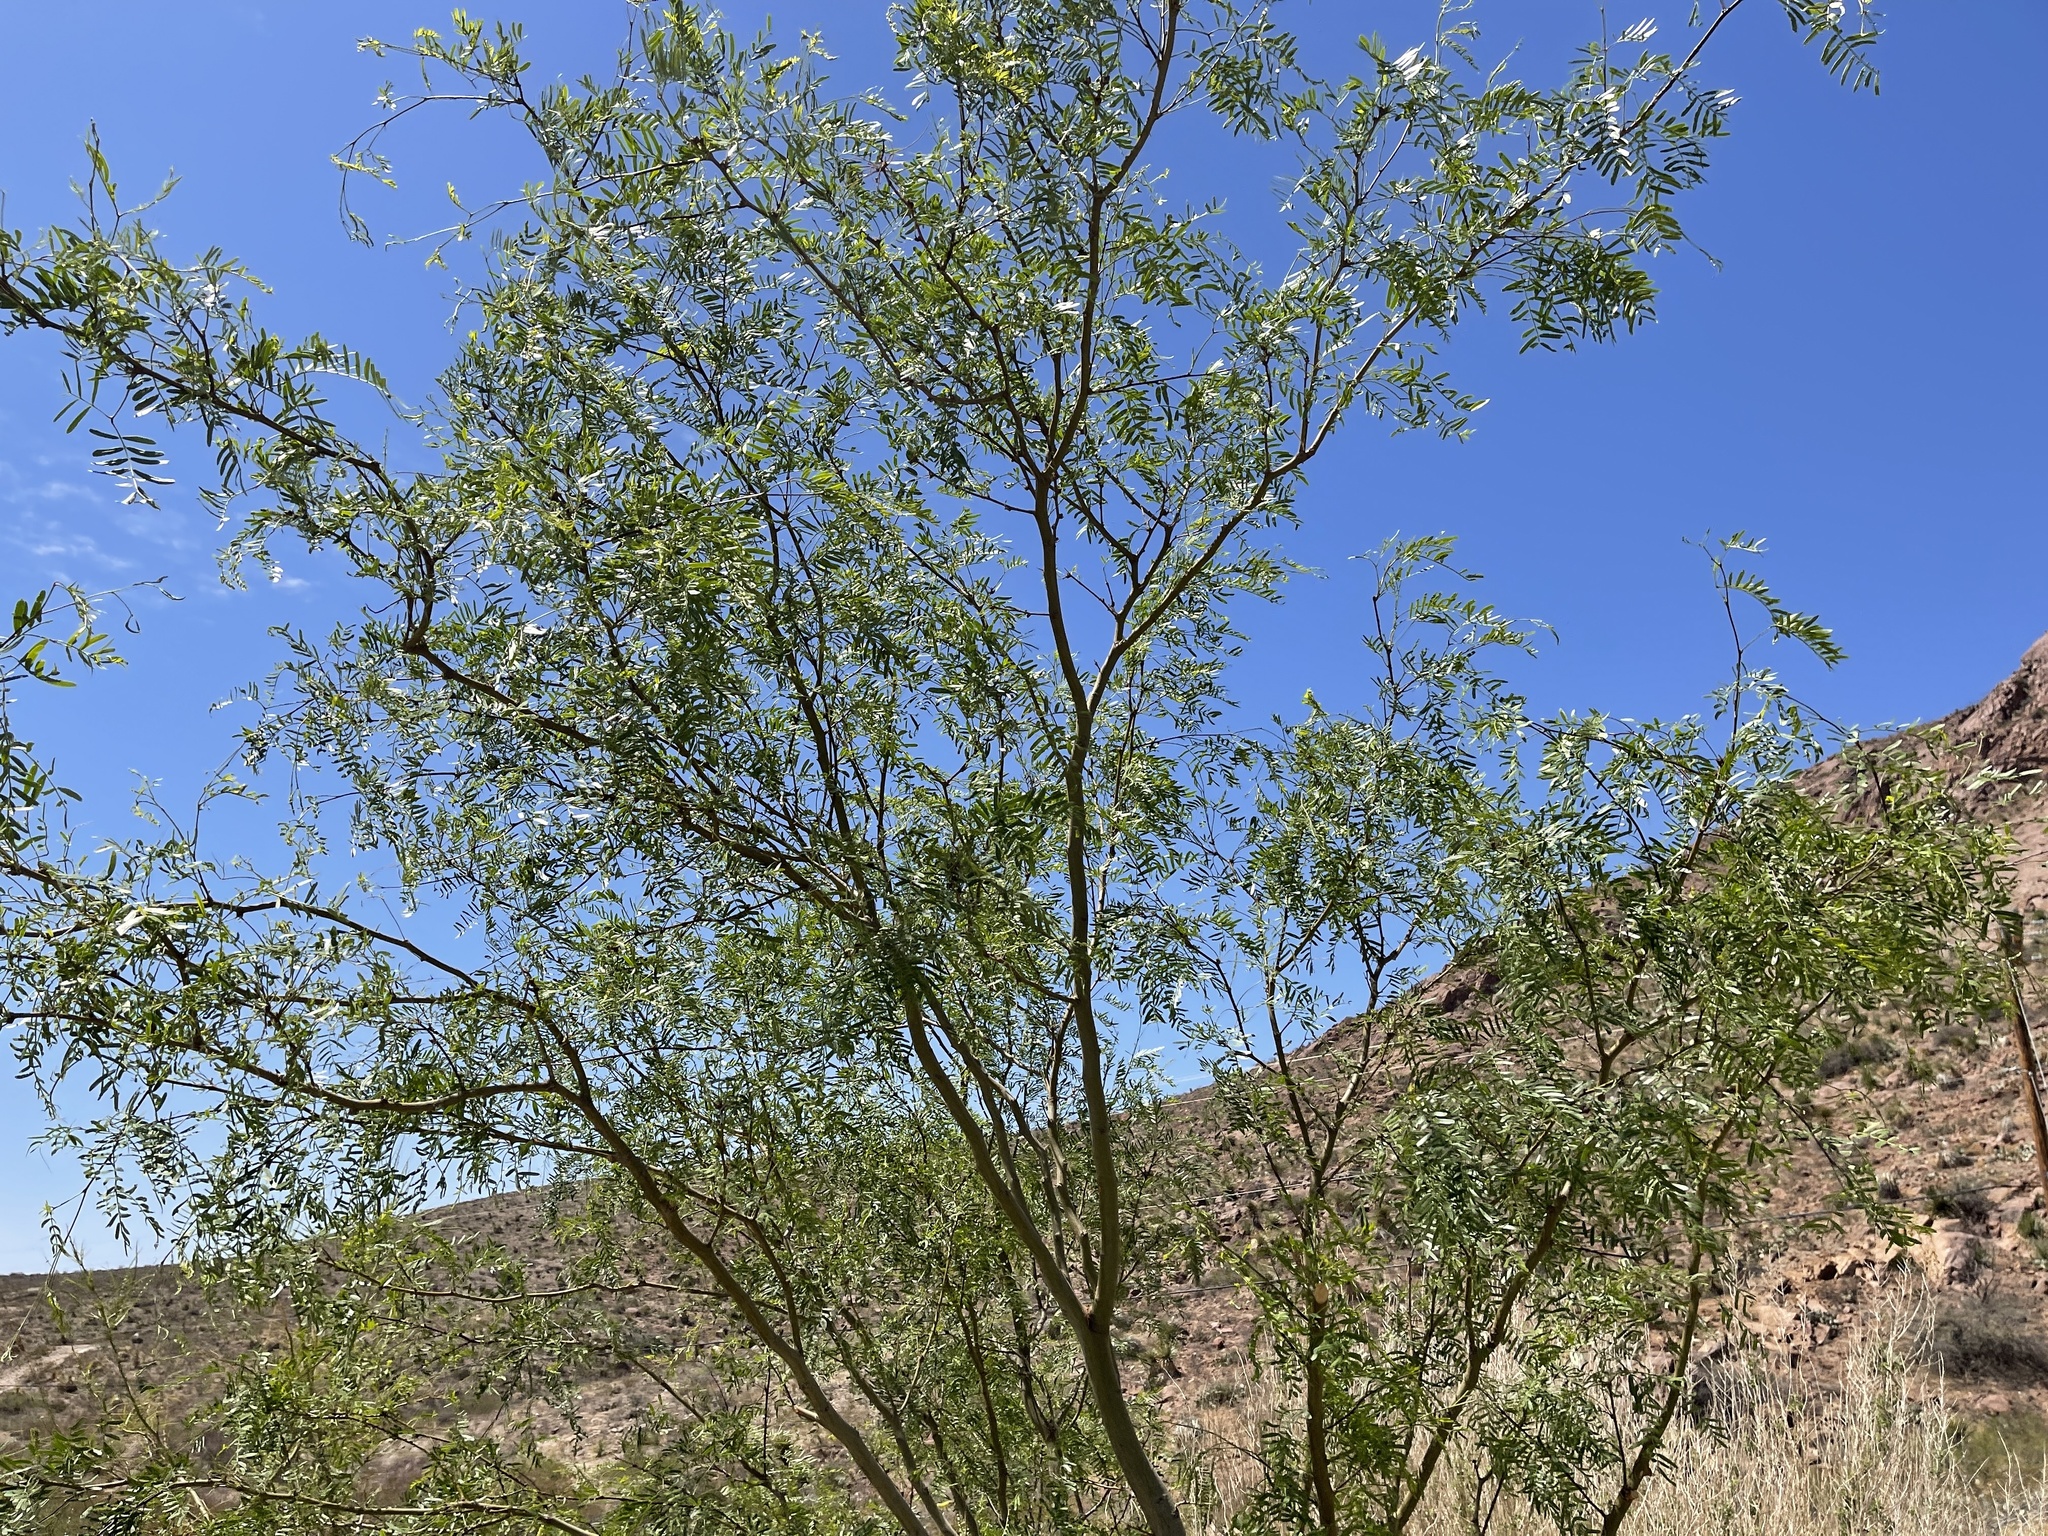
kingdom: Plantae
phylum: Tracheophyta
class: Magnoliopsida
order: Fabales
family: Fabaceae
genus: Prosopis
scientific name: Prosopis glandulosa
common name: Honey mesquite
